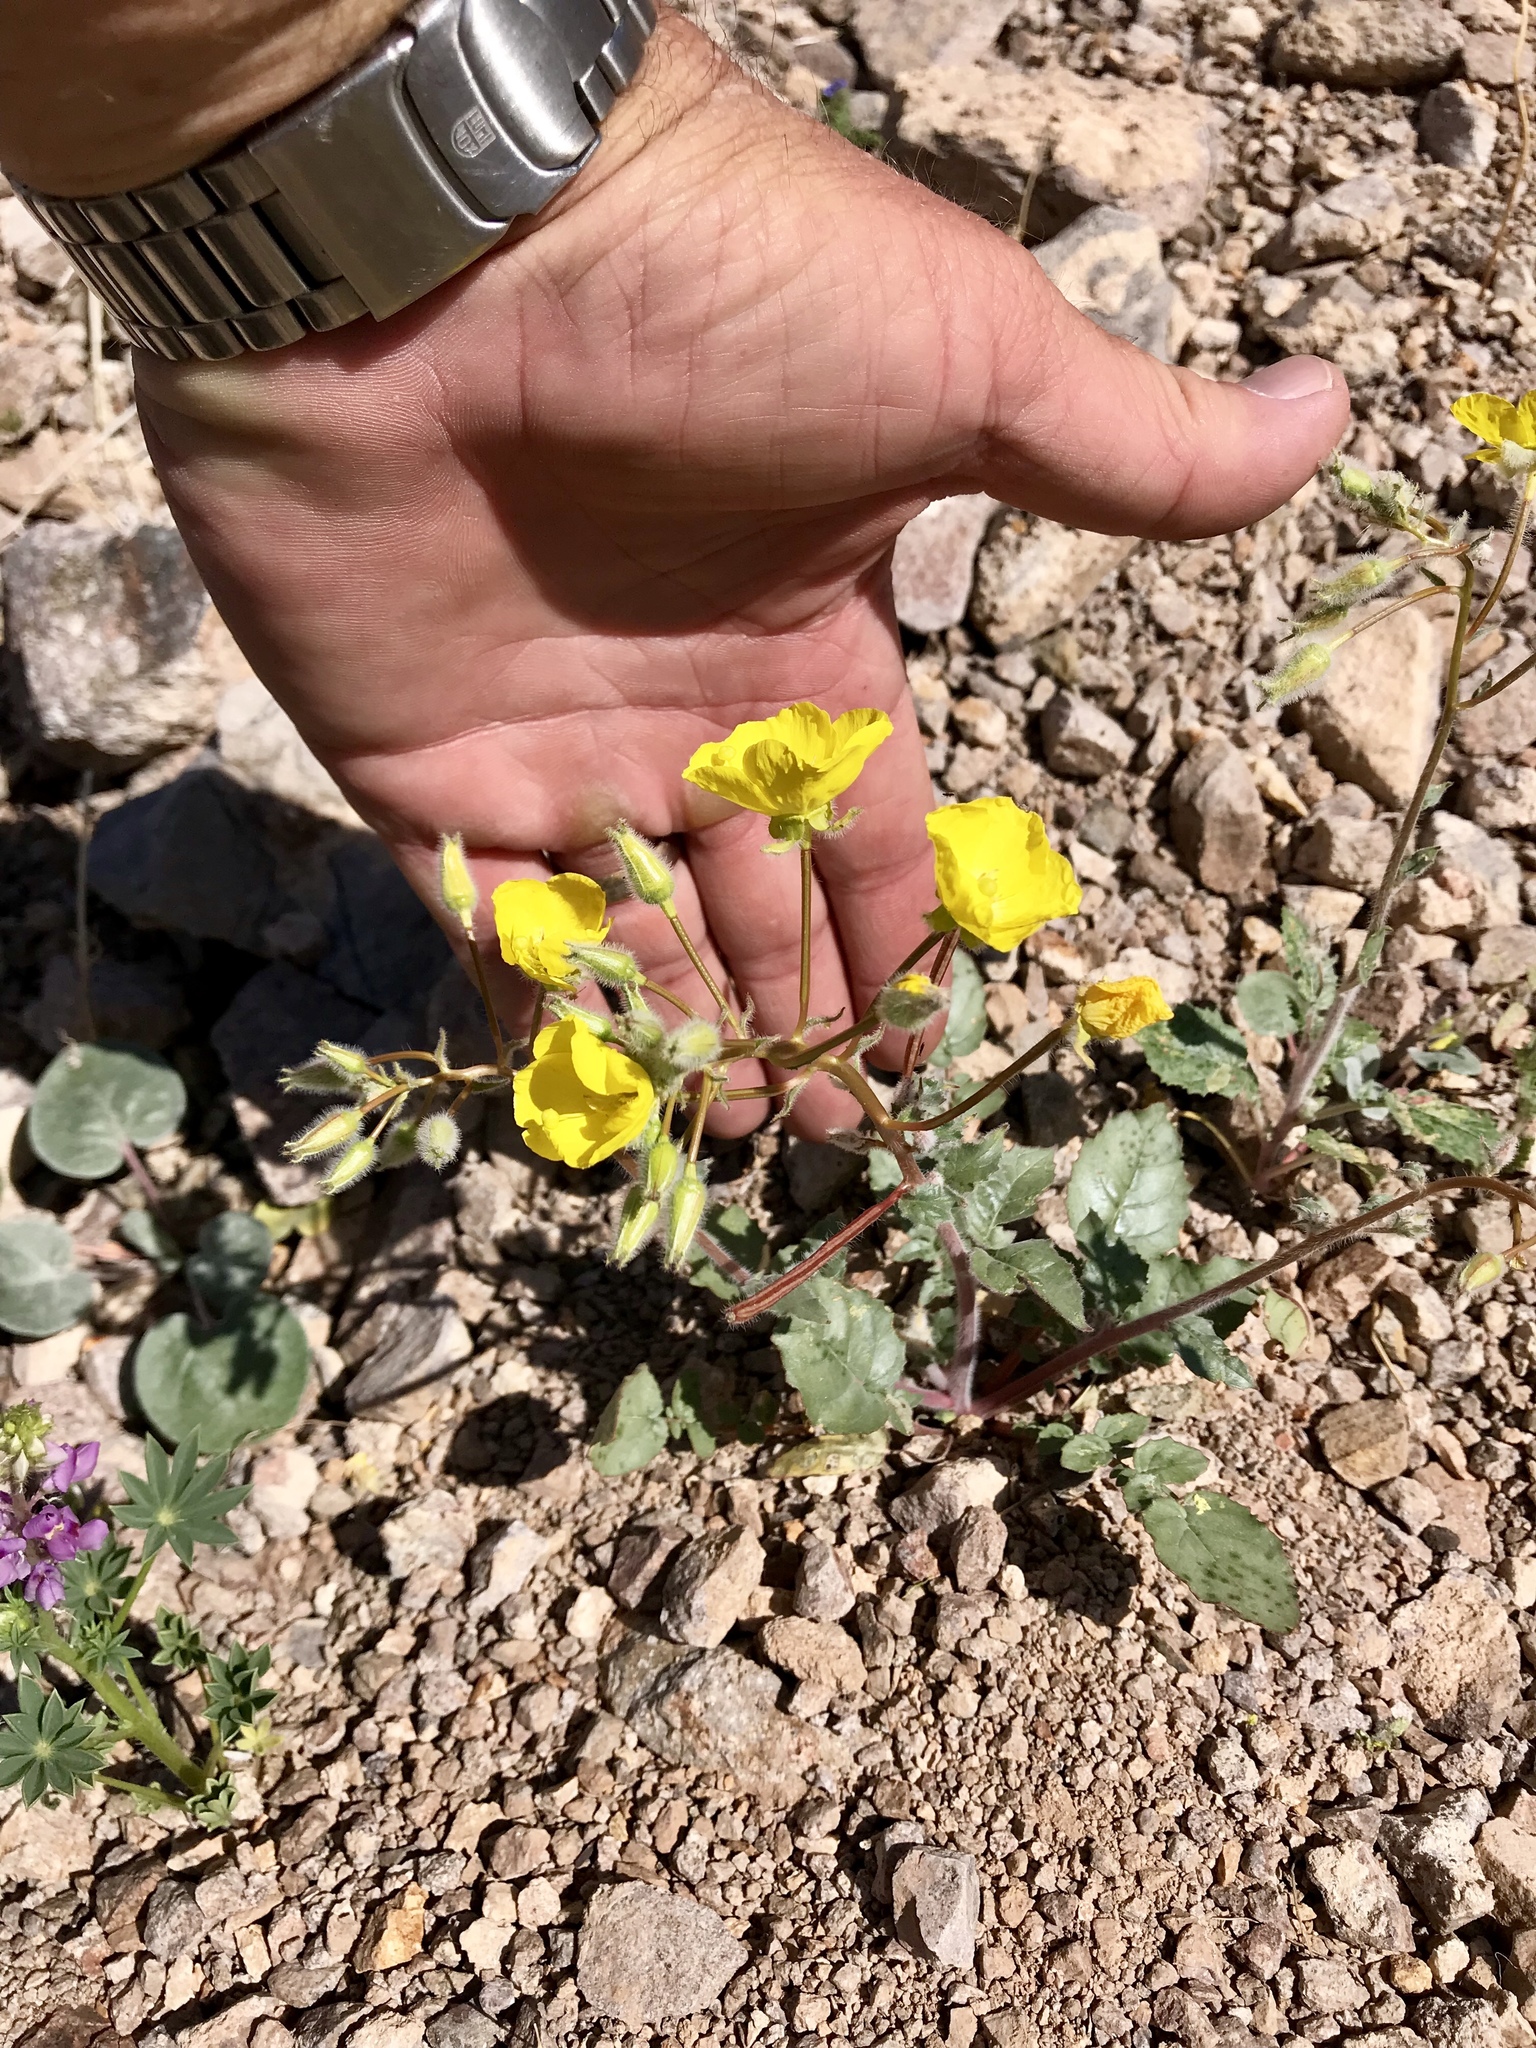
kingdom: Plantae
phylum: Tracheophyta
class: Magnoliopsida
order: Myrtales
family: Onagraceae
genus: Chylismia
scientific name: Chylismia brevipes
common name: Yellow cups
